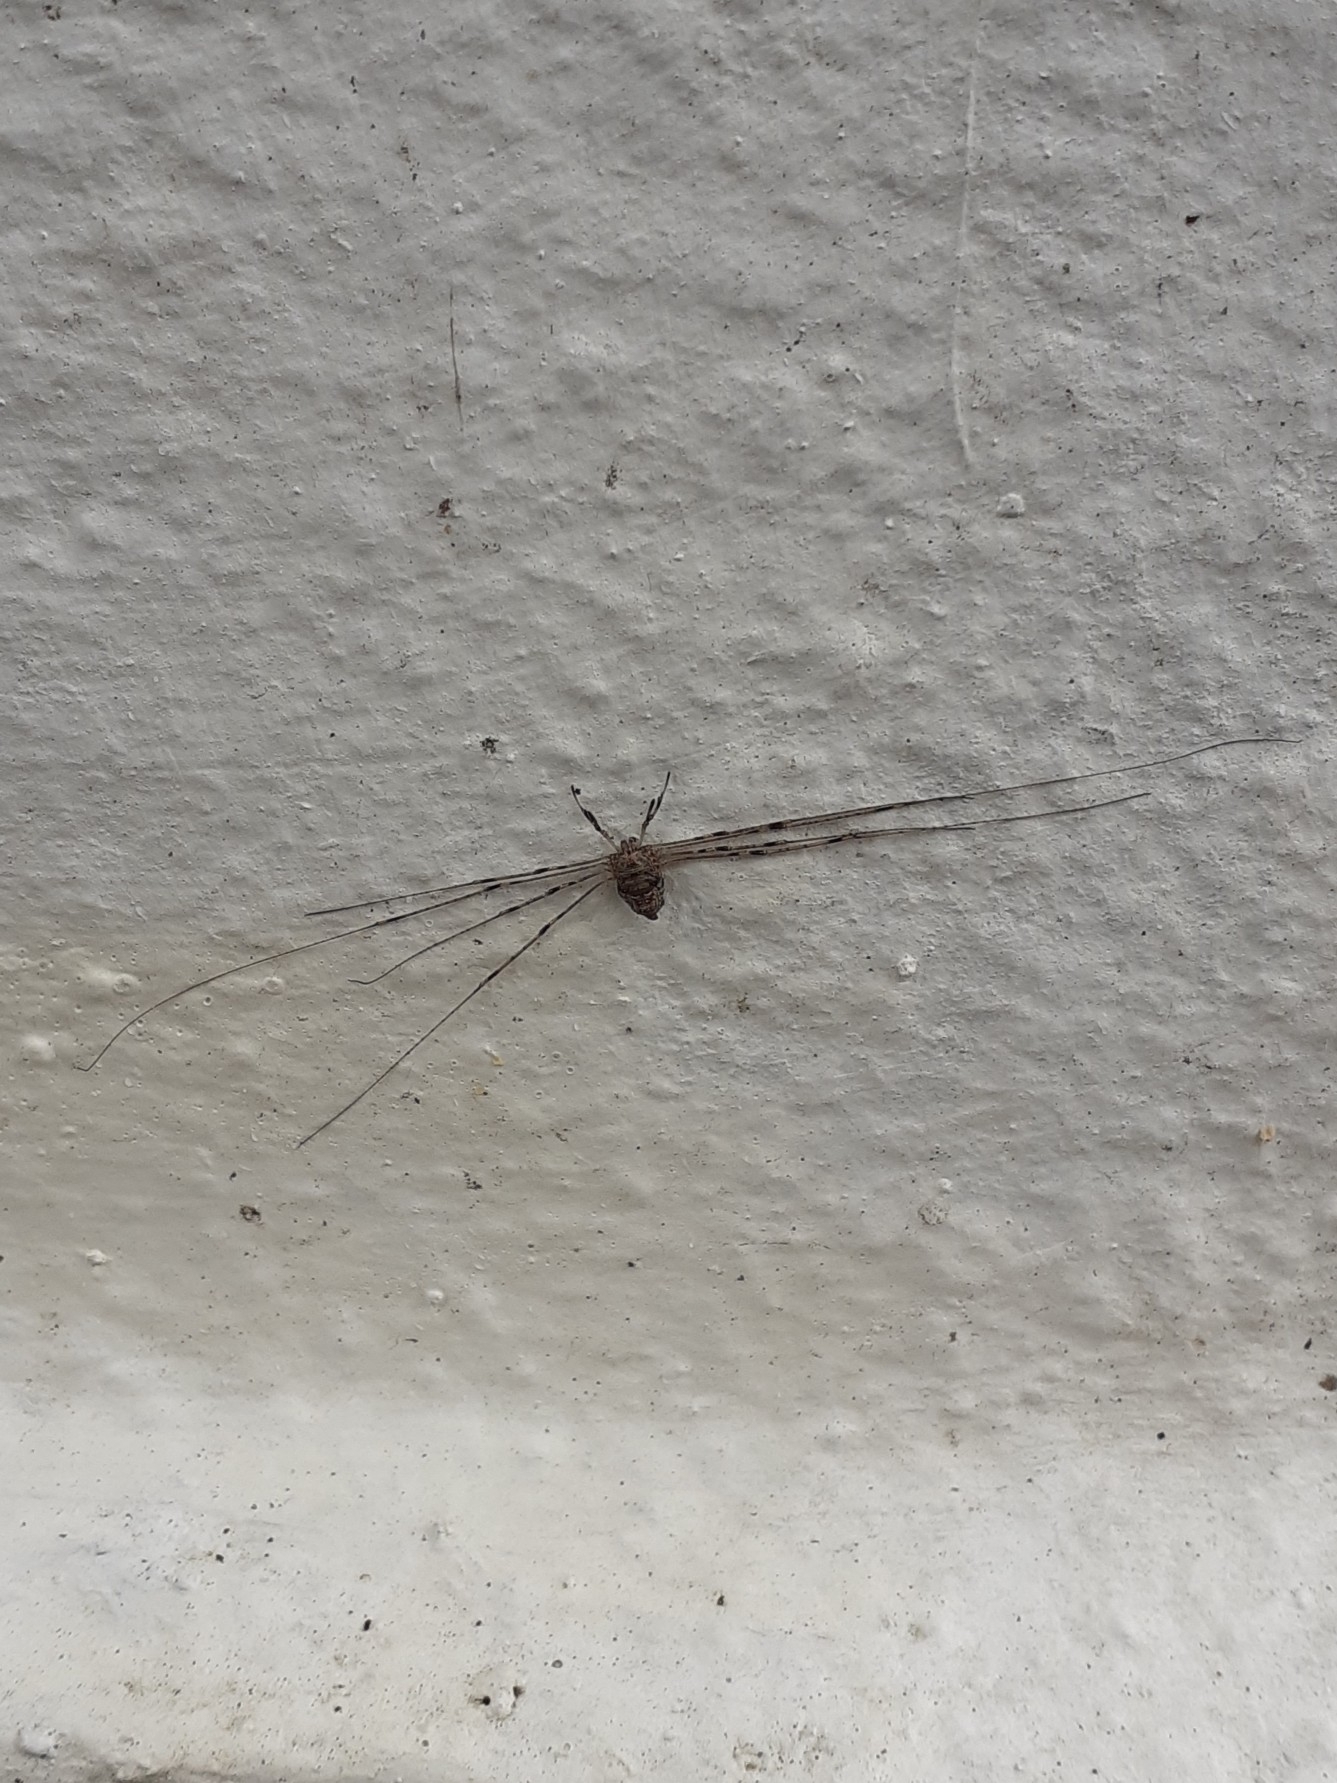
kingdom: Animalia
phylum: Arthropoda
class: Arachnida
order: Opiliones
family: Phalangiidae
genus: Dicranopalpus
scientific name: Dicranopalpus ramosus
